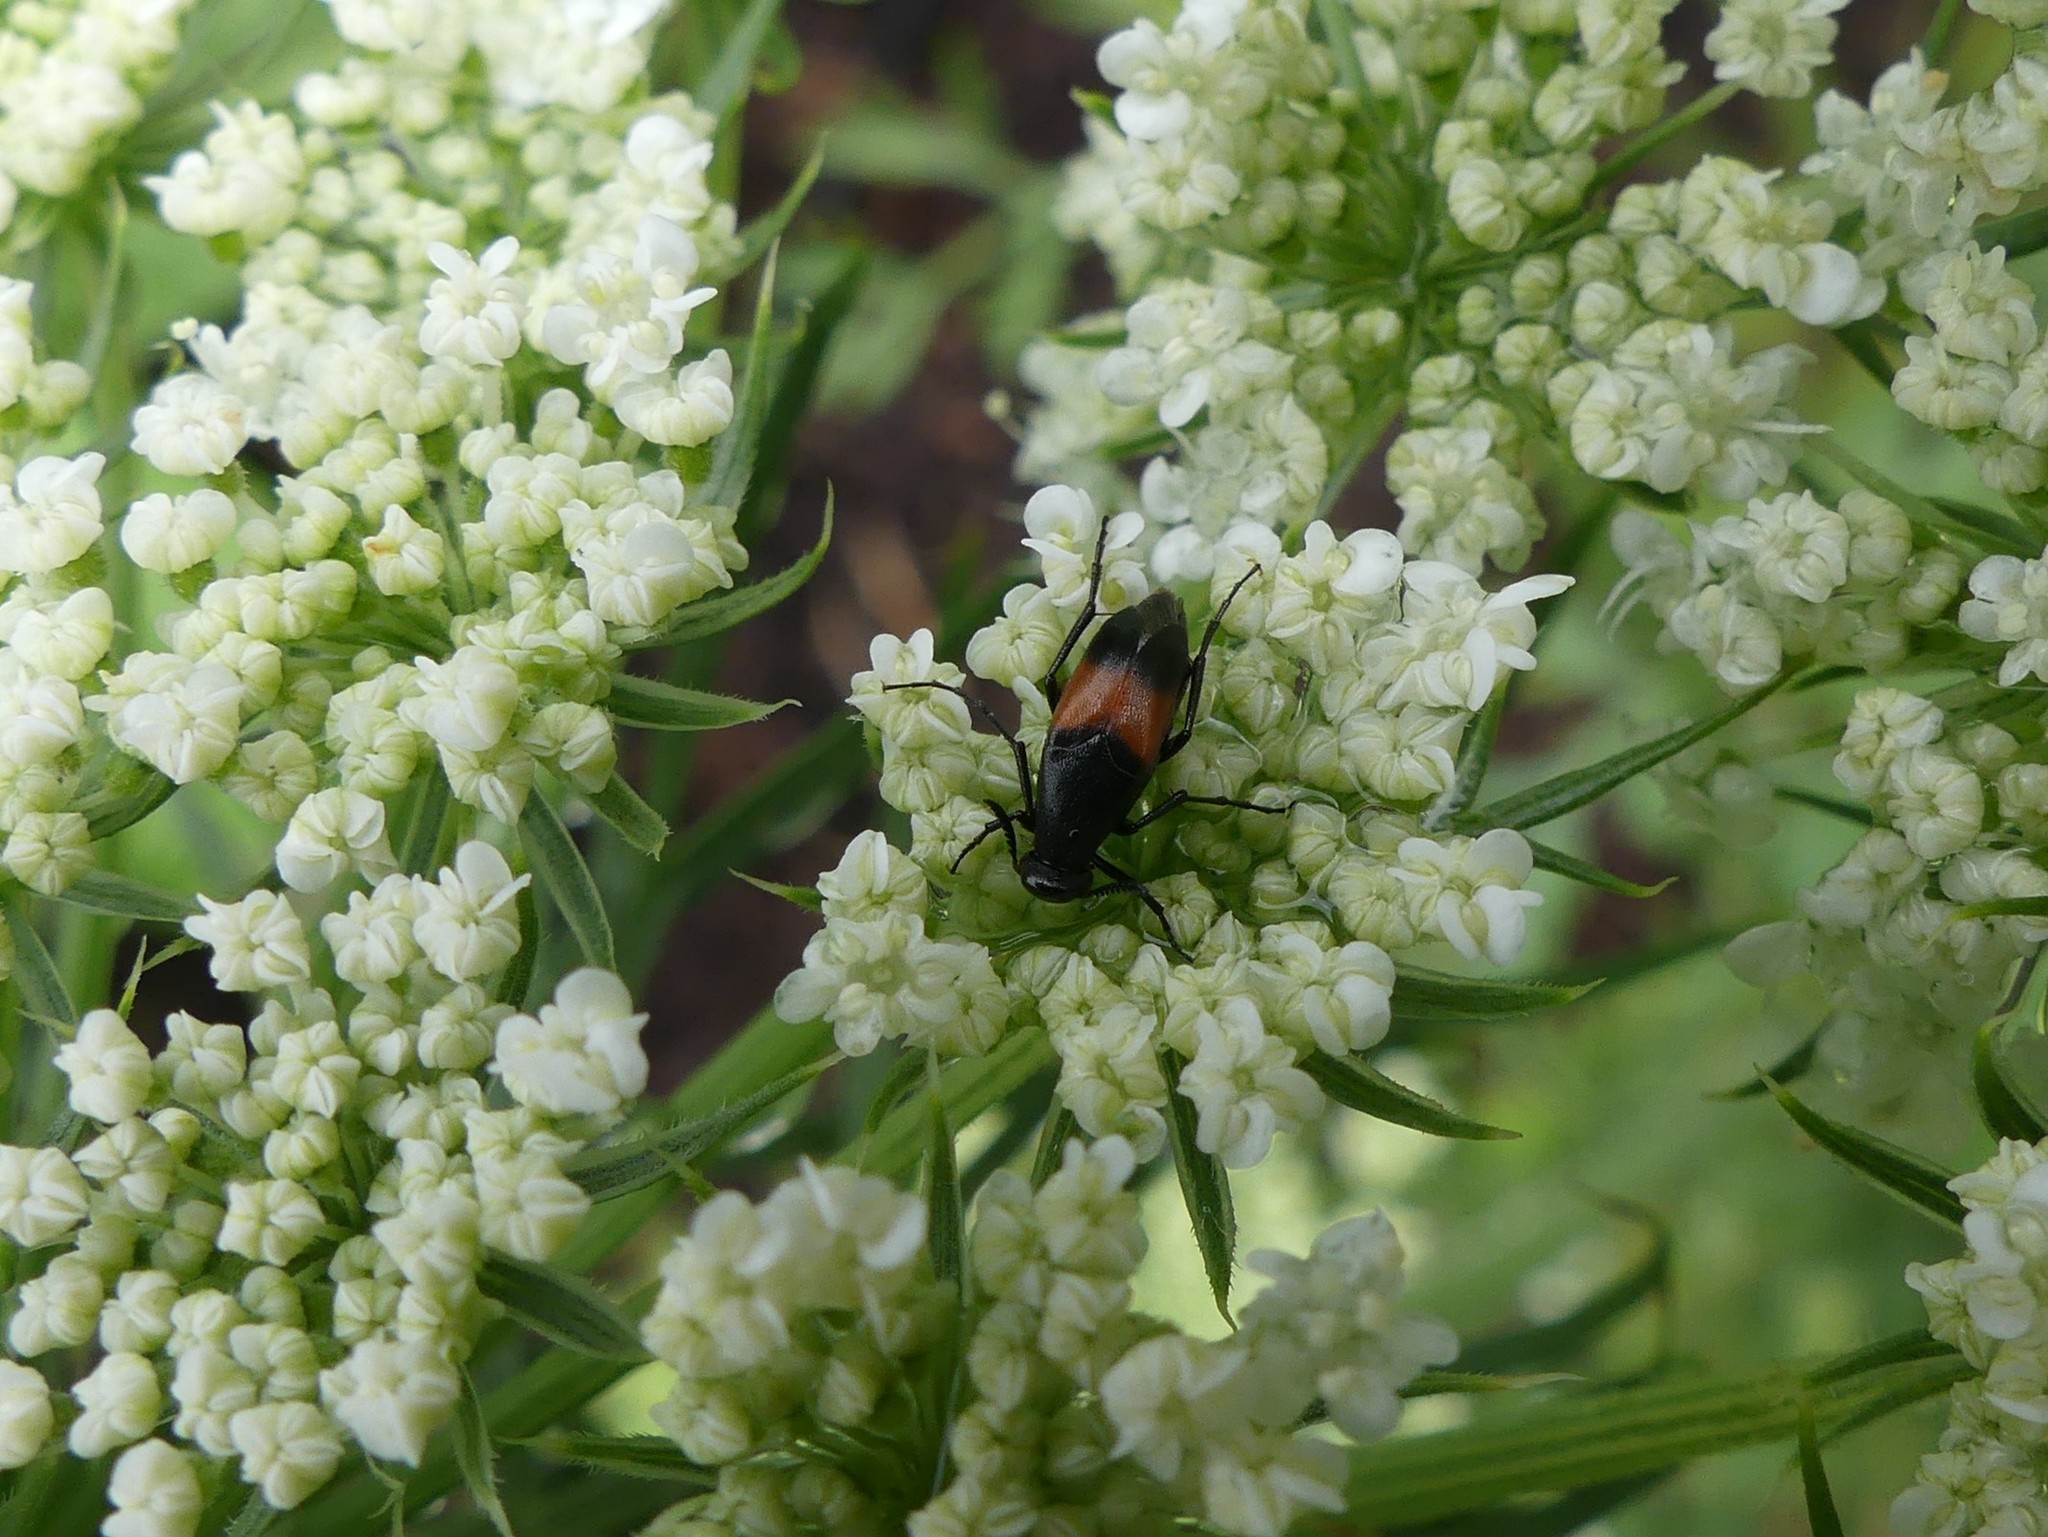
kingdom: Animalia
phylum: Arthropoda
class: Insecta
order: Coleoptera
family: Ripiphoridae
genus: Macrosiagon
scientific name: Macrosiagon cruentum
